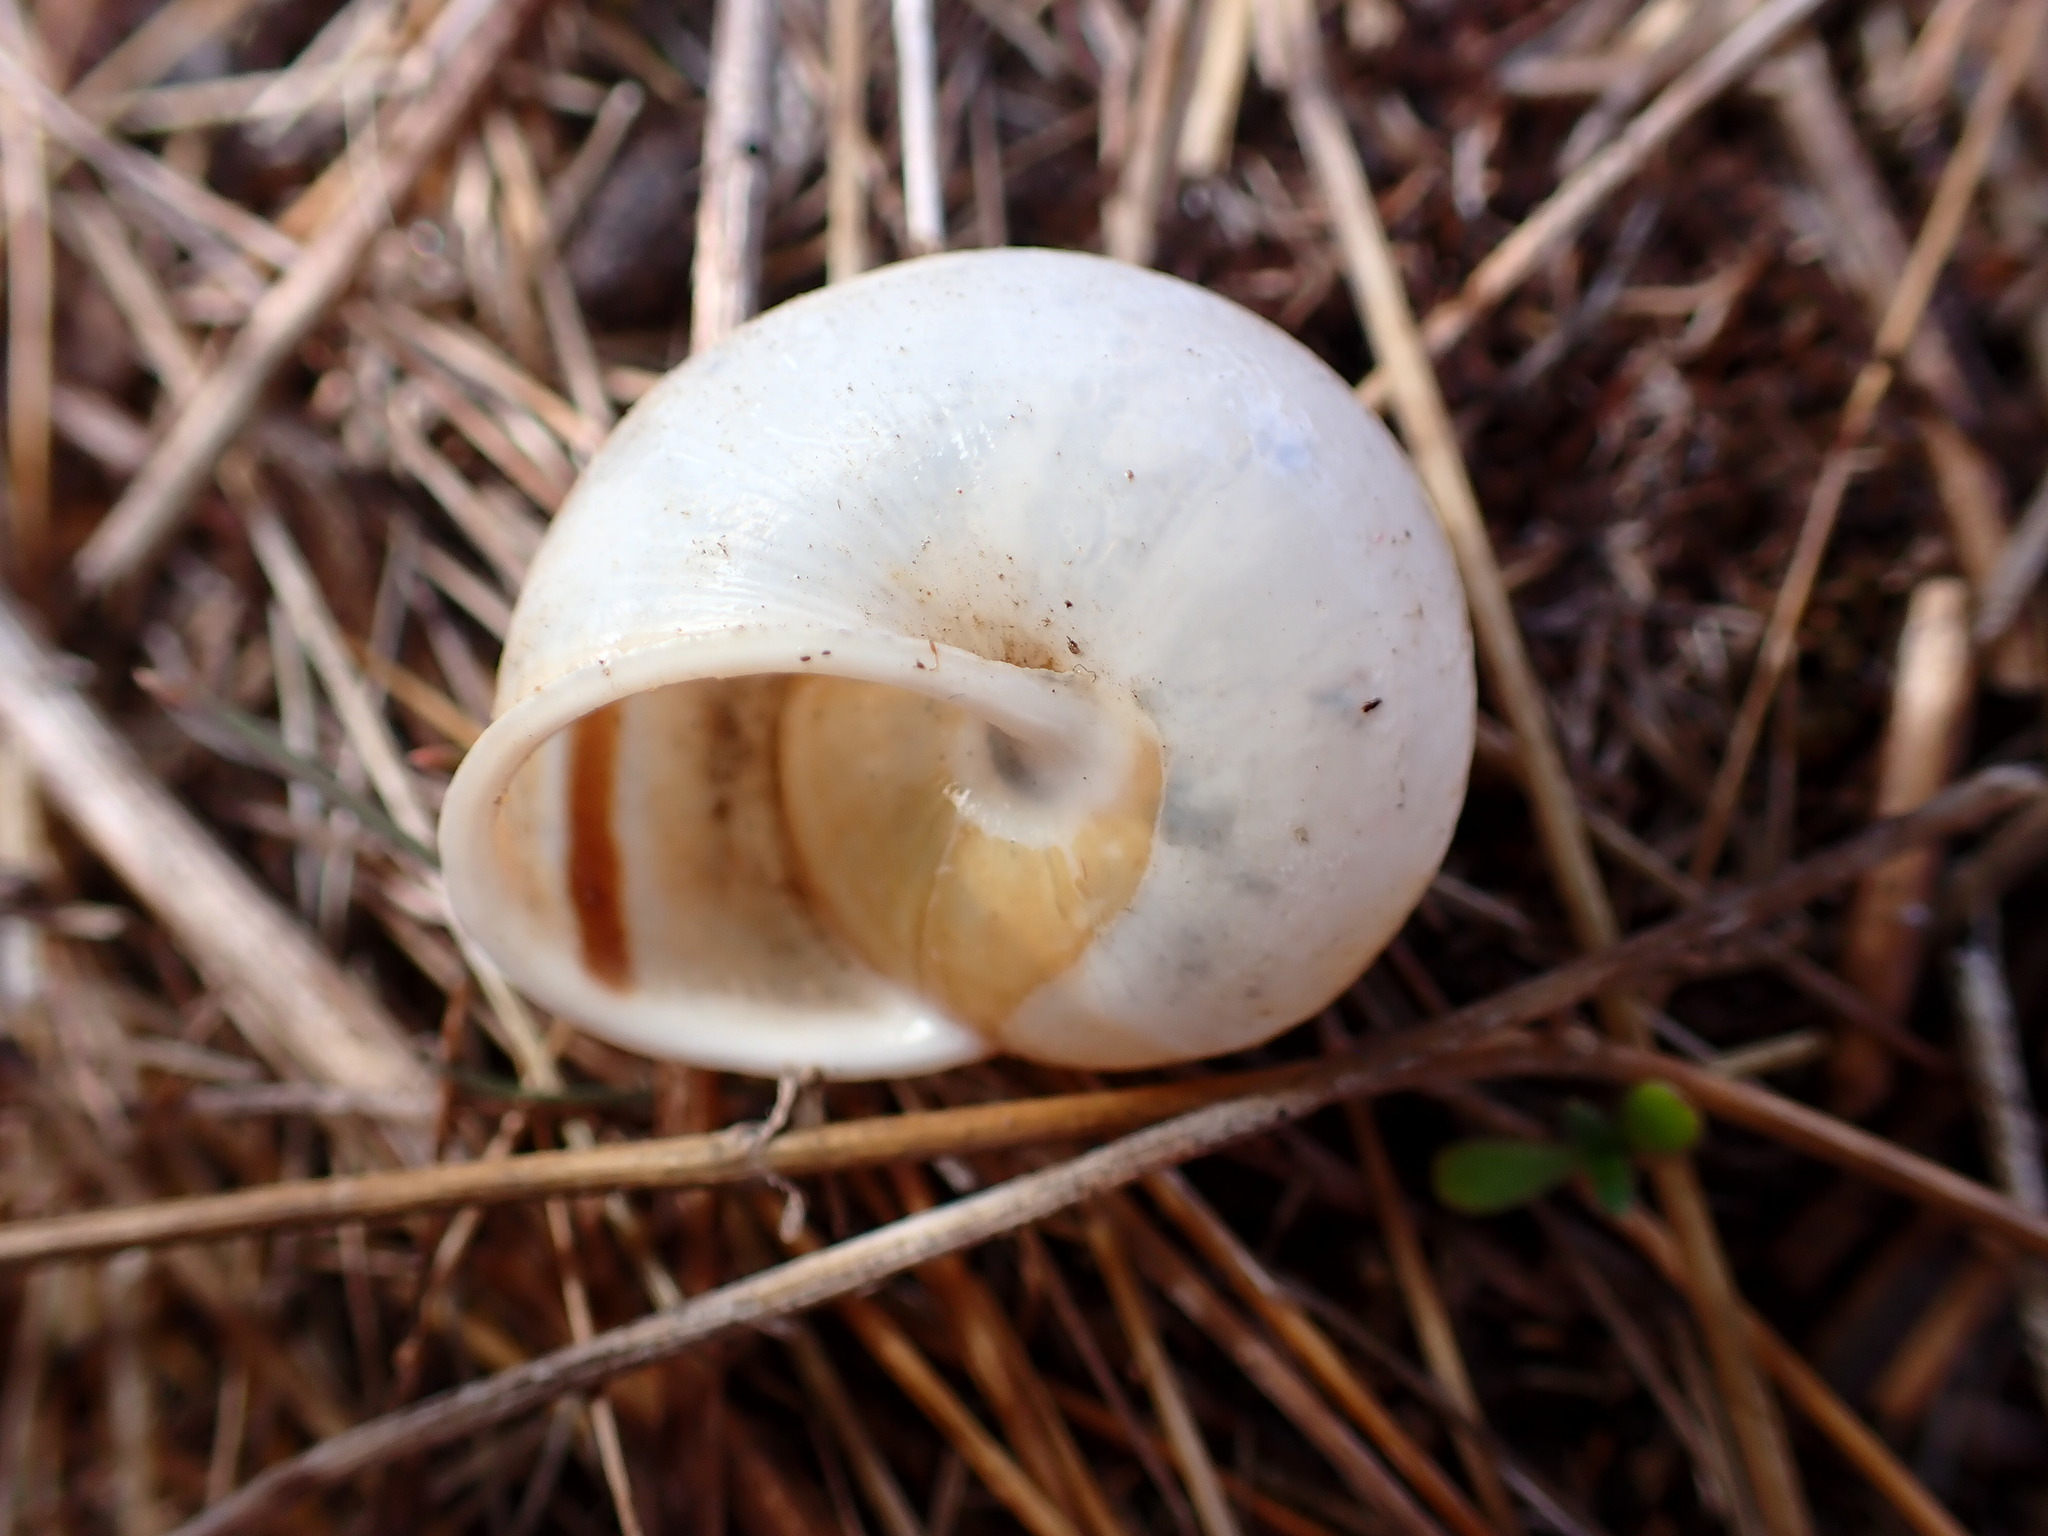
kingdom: Animalia
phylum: Mollusca
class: Gastropoda
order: Stylommatophora
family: Xanthonychidae
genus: Helminthoglypta
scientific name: Helminthoglypta tudiculata
